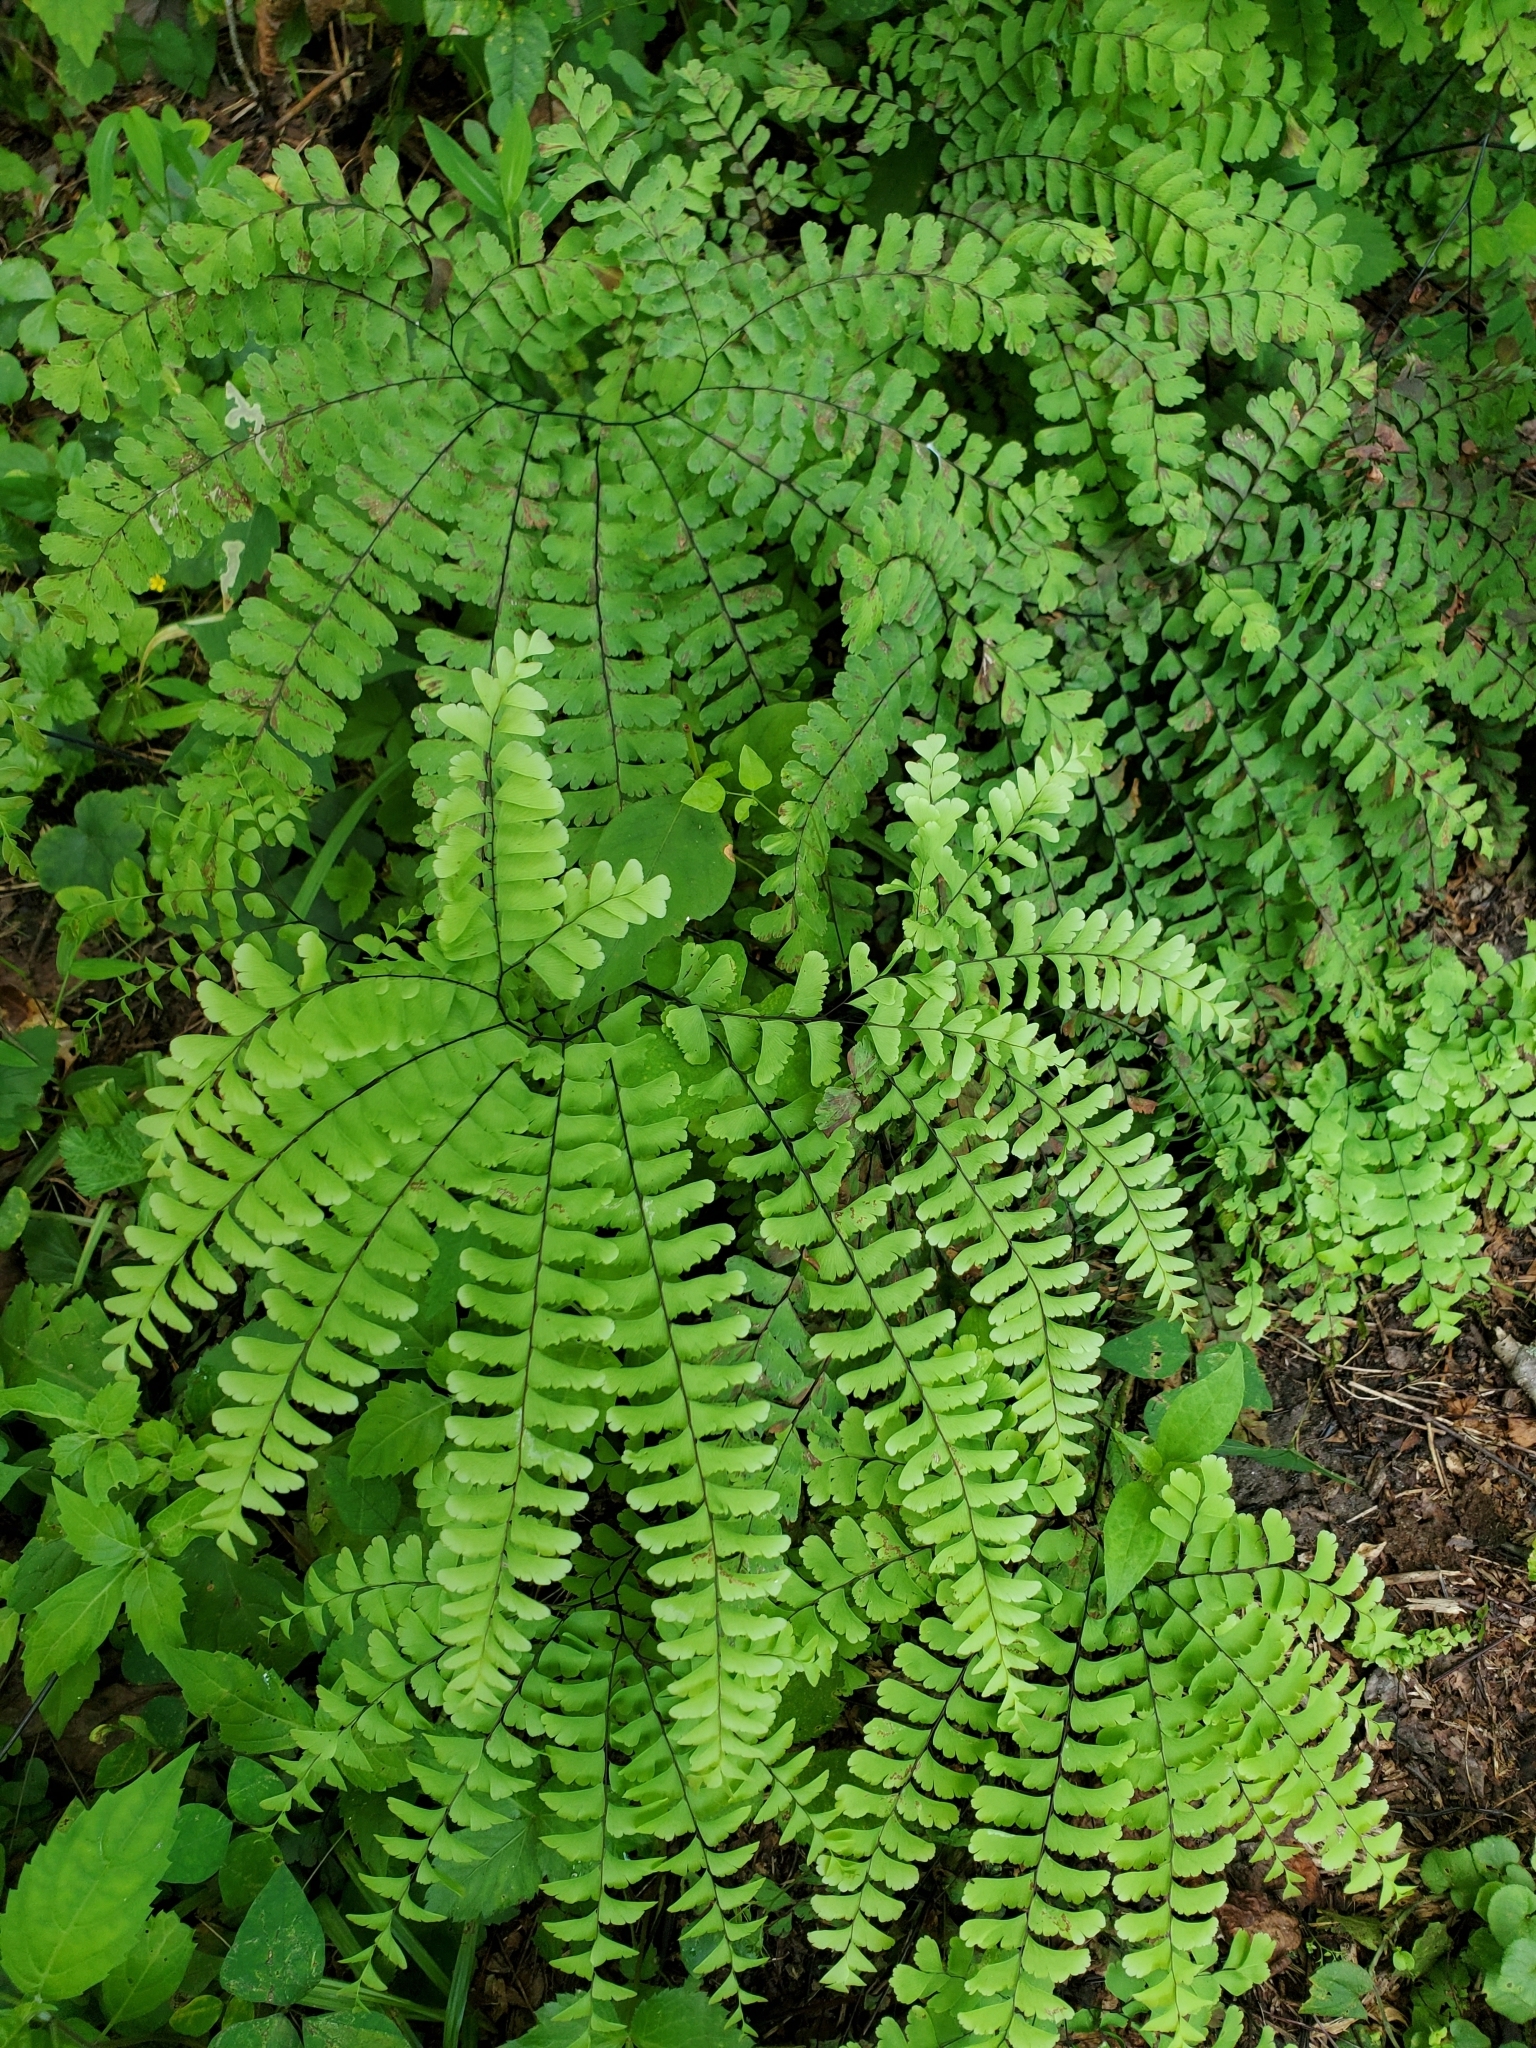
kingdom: Plantae
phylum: Tracheophyta
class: Polypodiopsida
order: Polypodiales
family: Pteridaceae
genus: Adiantum
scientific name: Adiantum pedatum
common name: Five-finger fern
